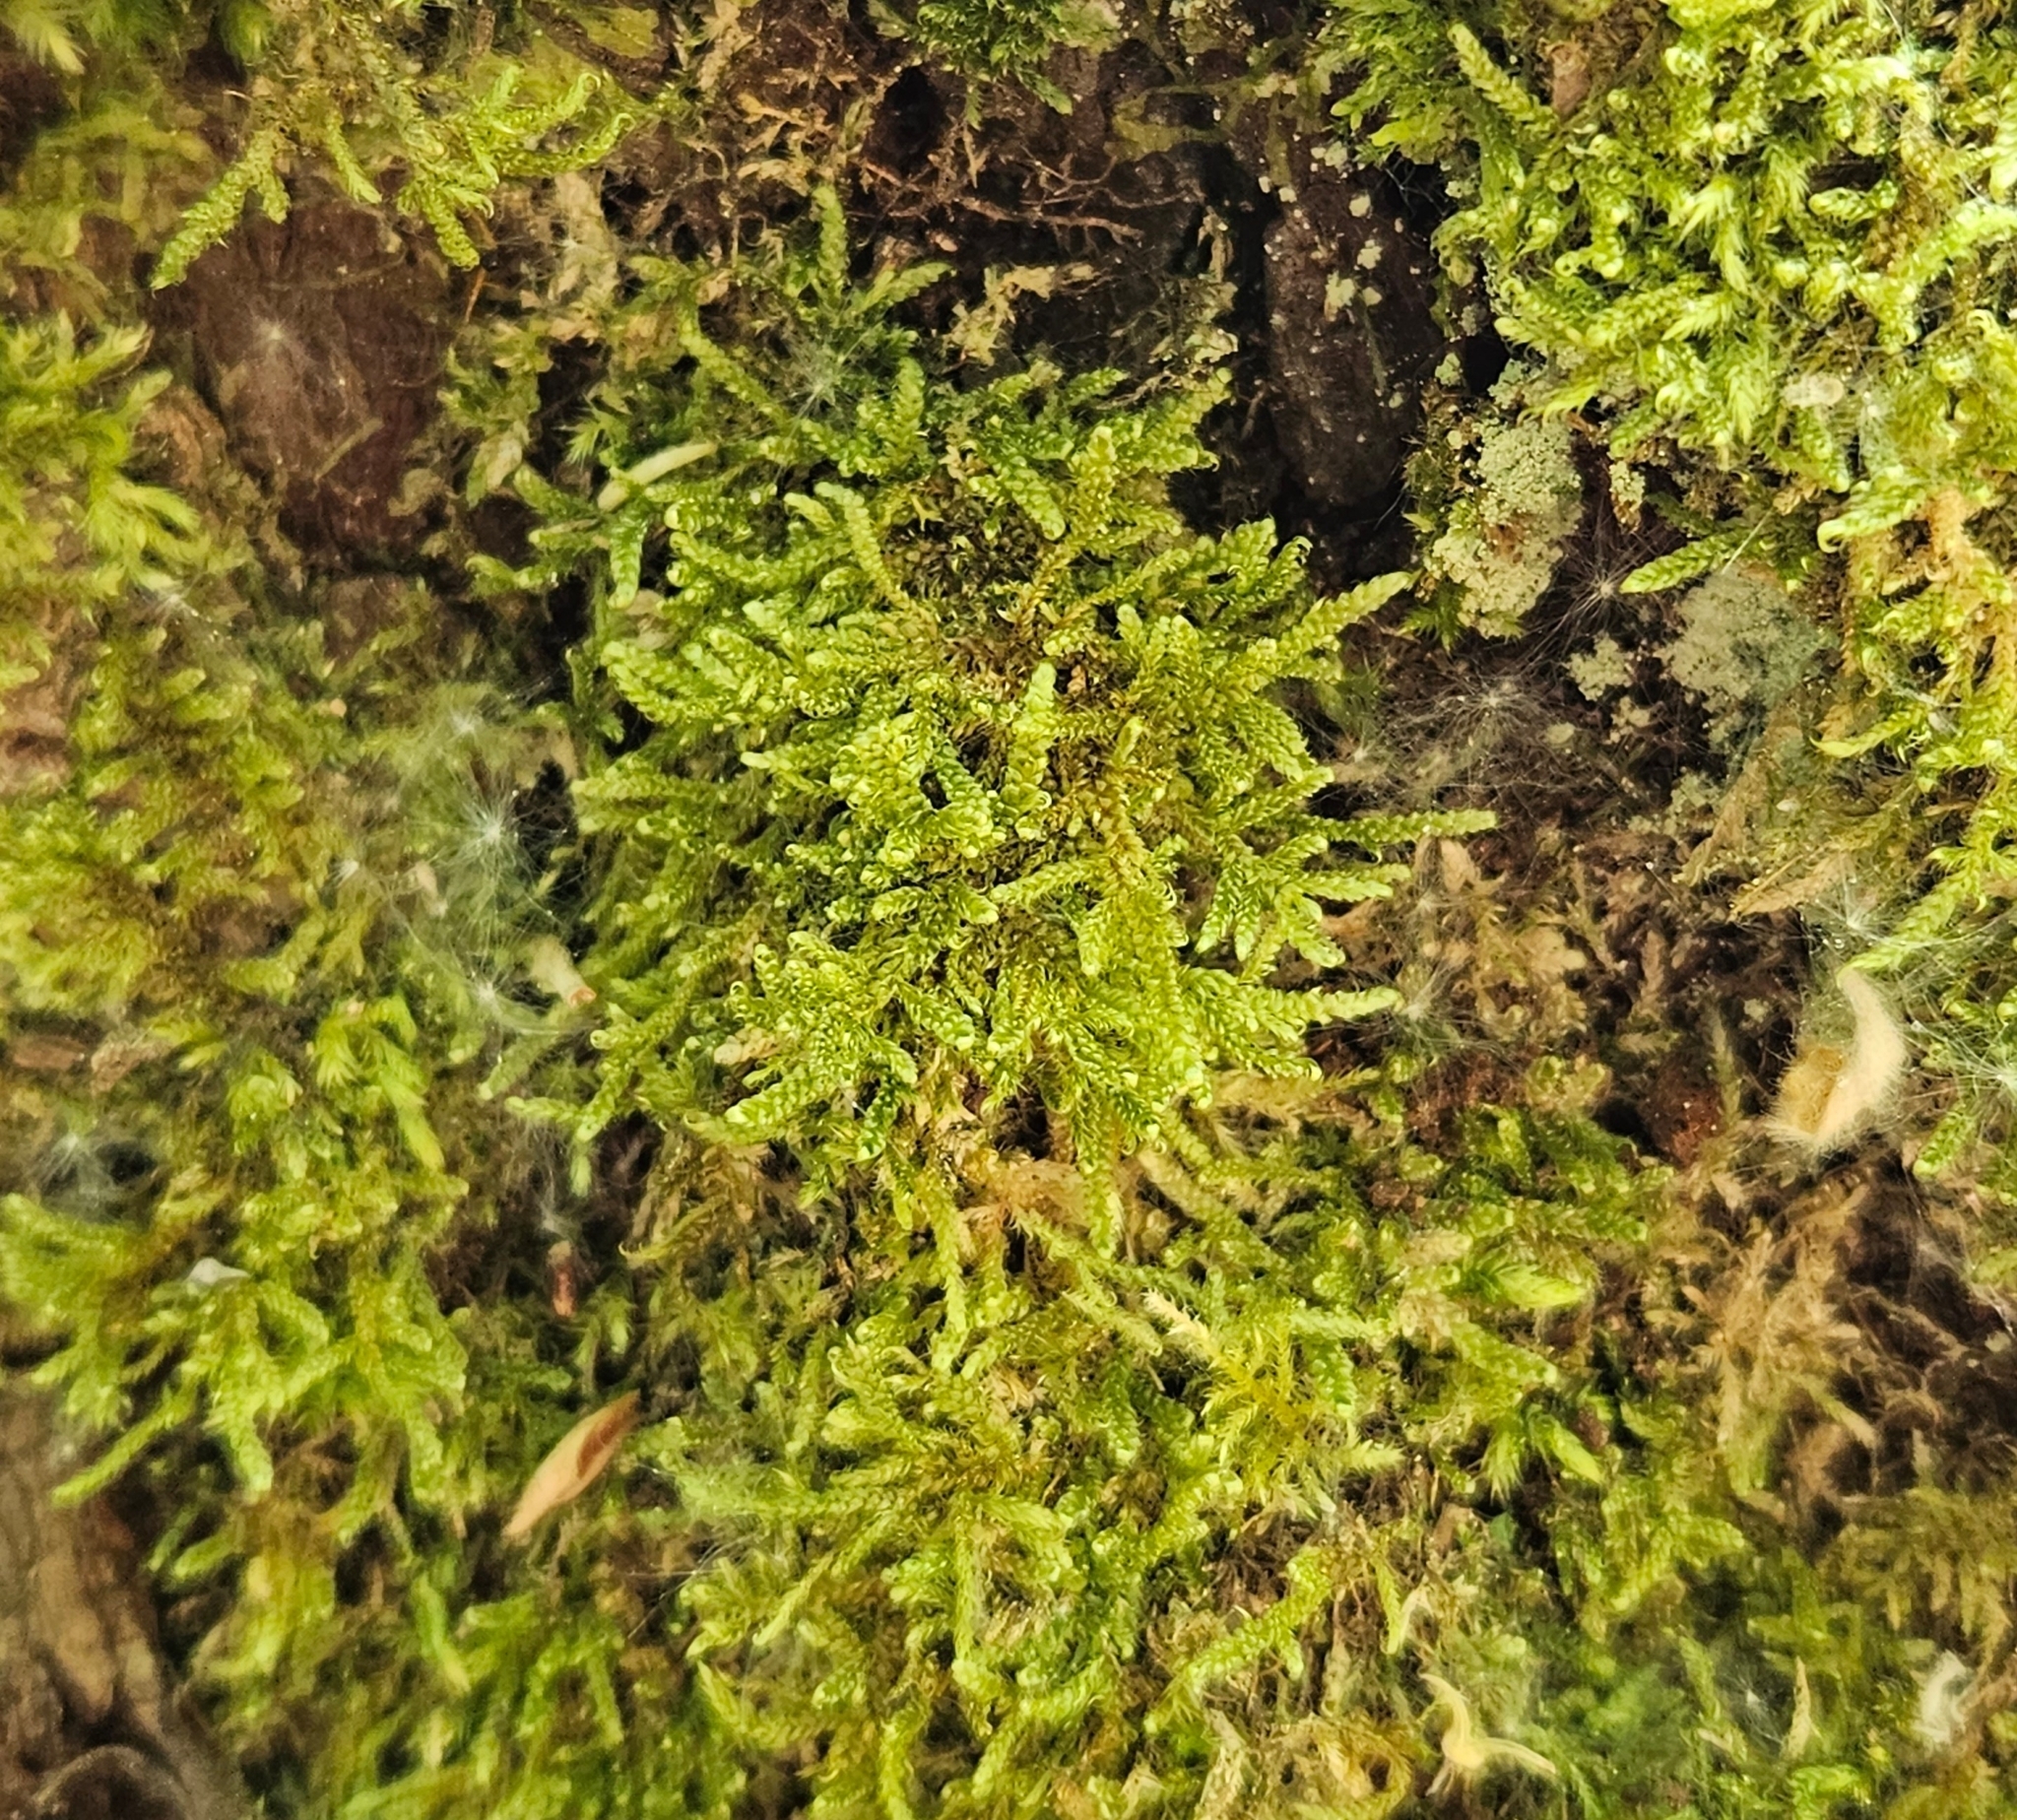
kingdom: Plantae
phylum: Bryophyta
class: Bryopsida
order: Hypnales
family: Hypnaceae
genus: Hypnum
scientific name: Hypnum cupressiforme
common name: Cypress-leaved plait-moss
